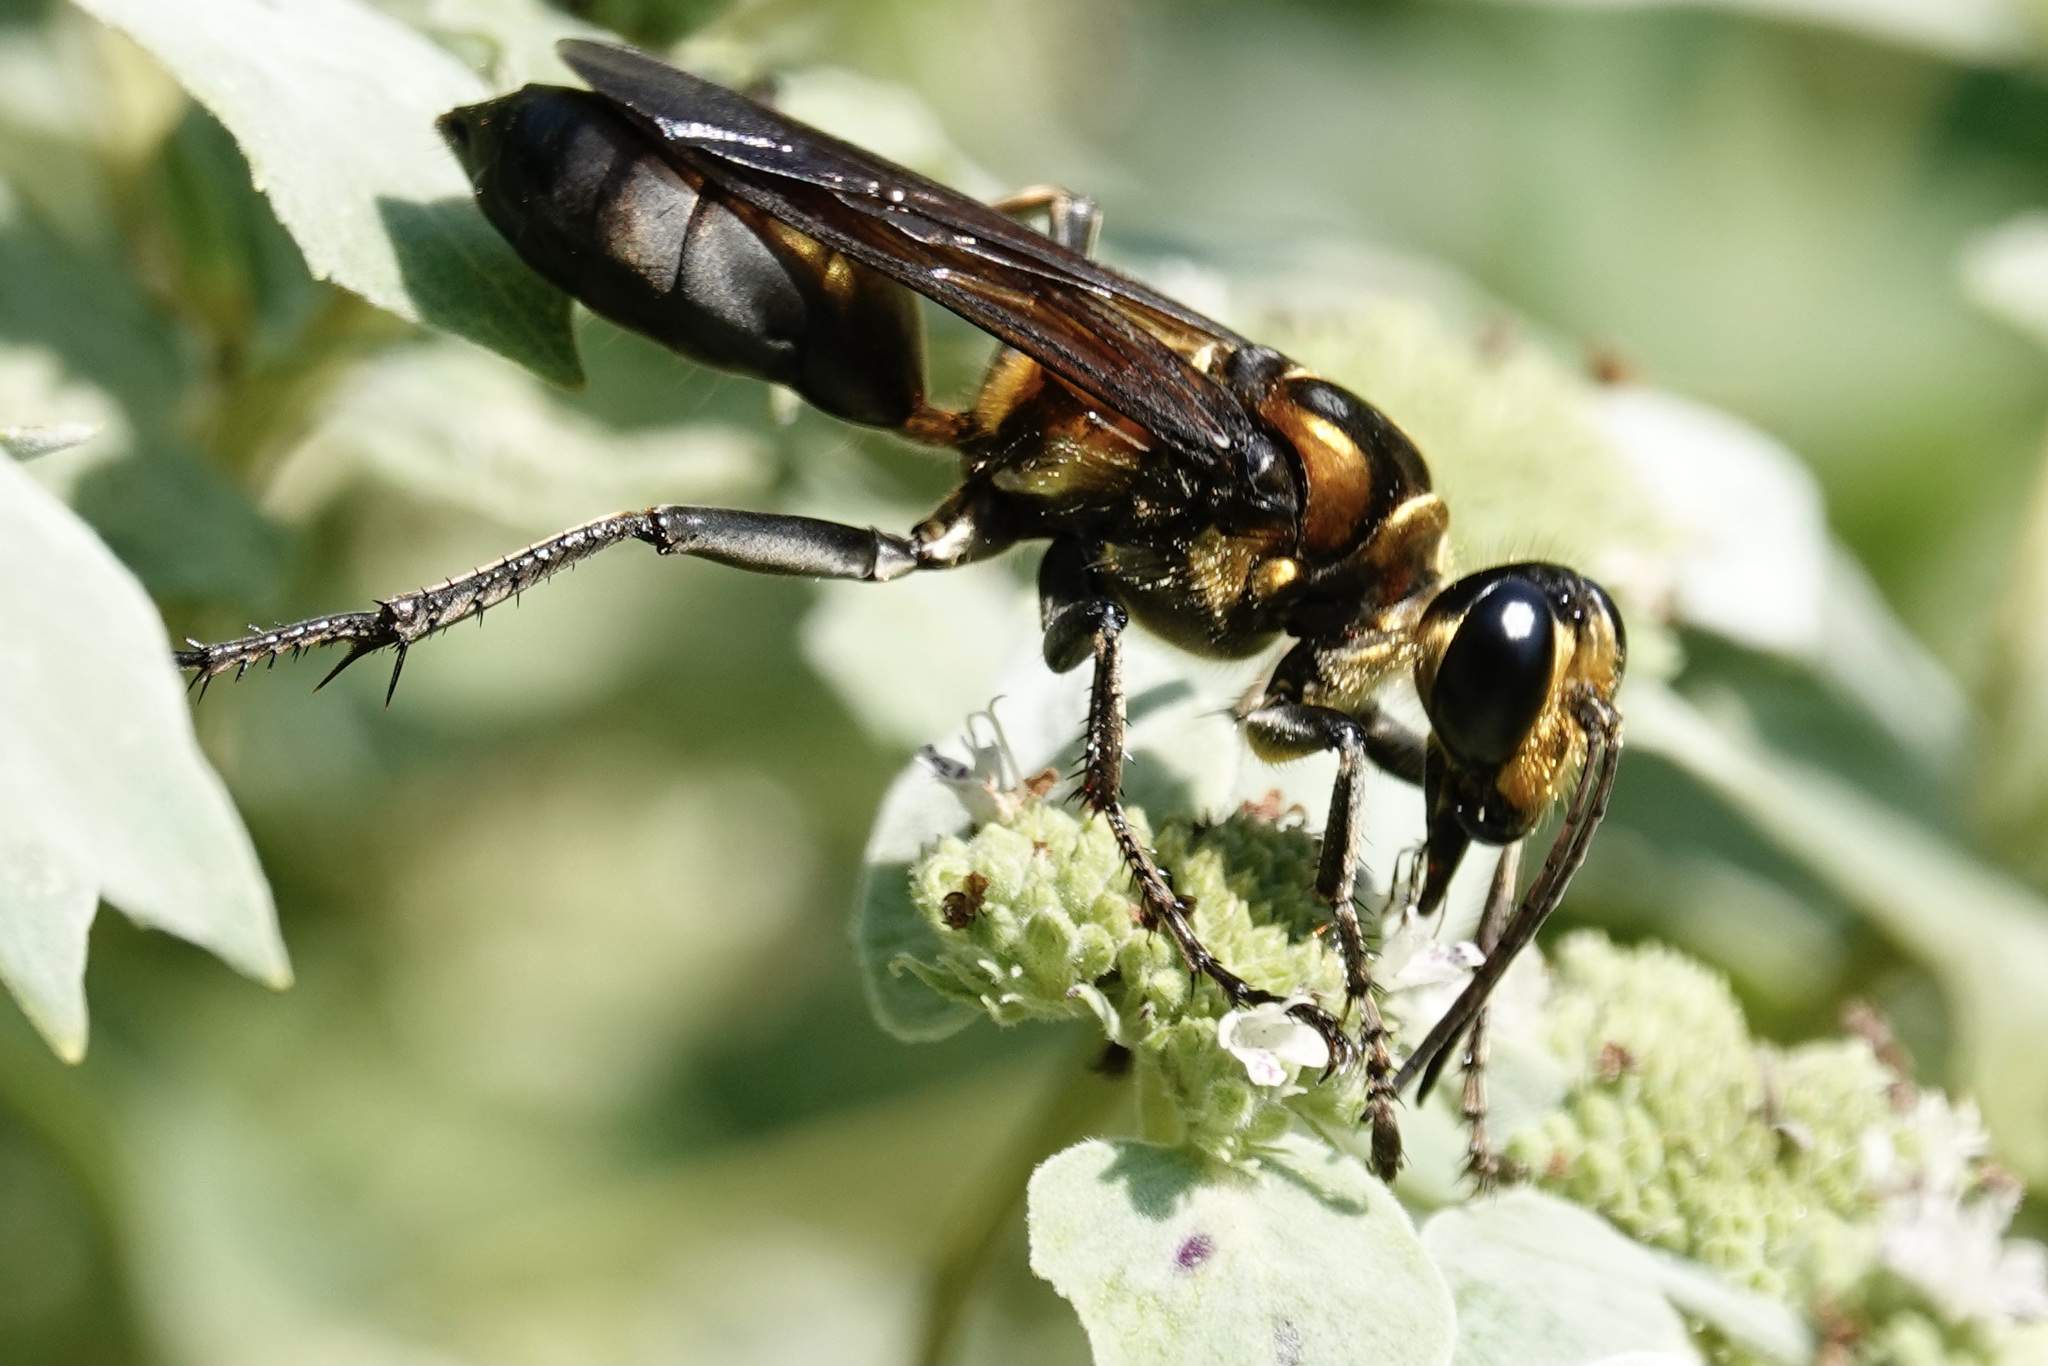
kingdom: Animalia
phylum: Arthropoda
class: Insecta
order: Hymenoptera
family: Sphecidae
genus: Sphex
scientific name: Sphex habenus
